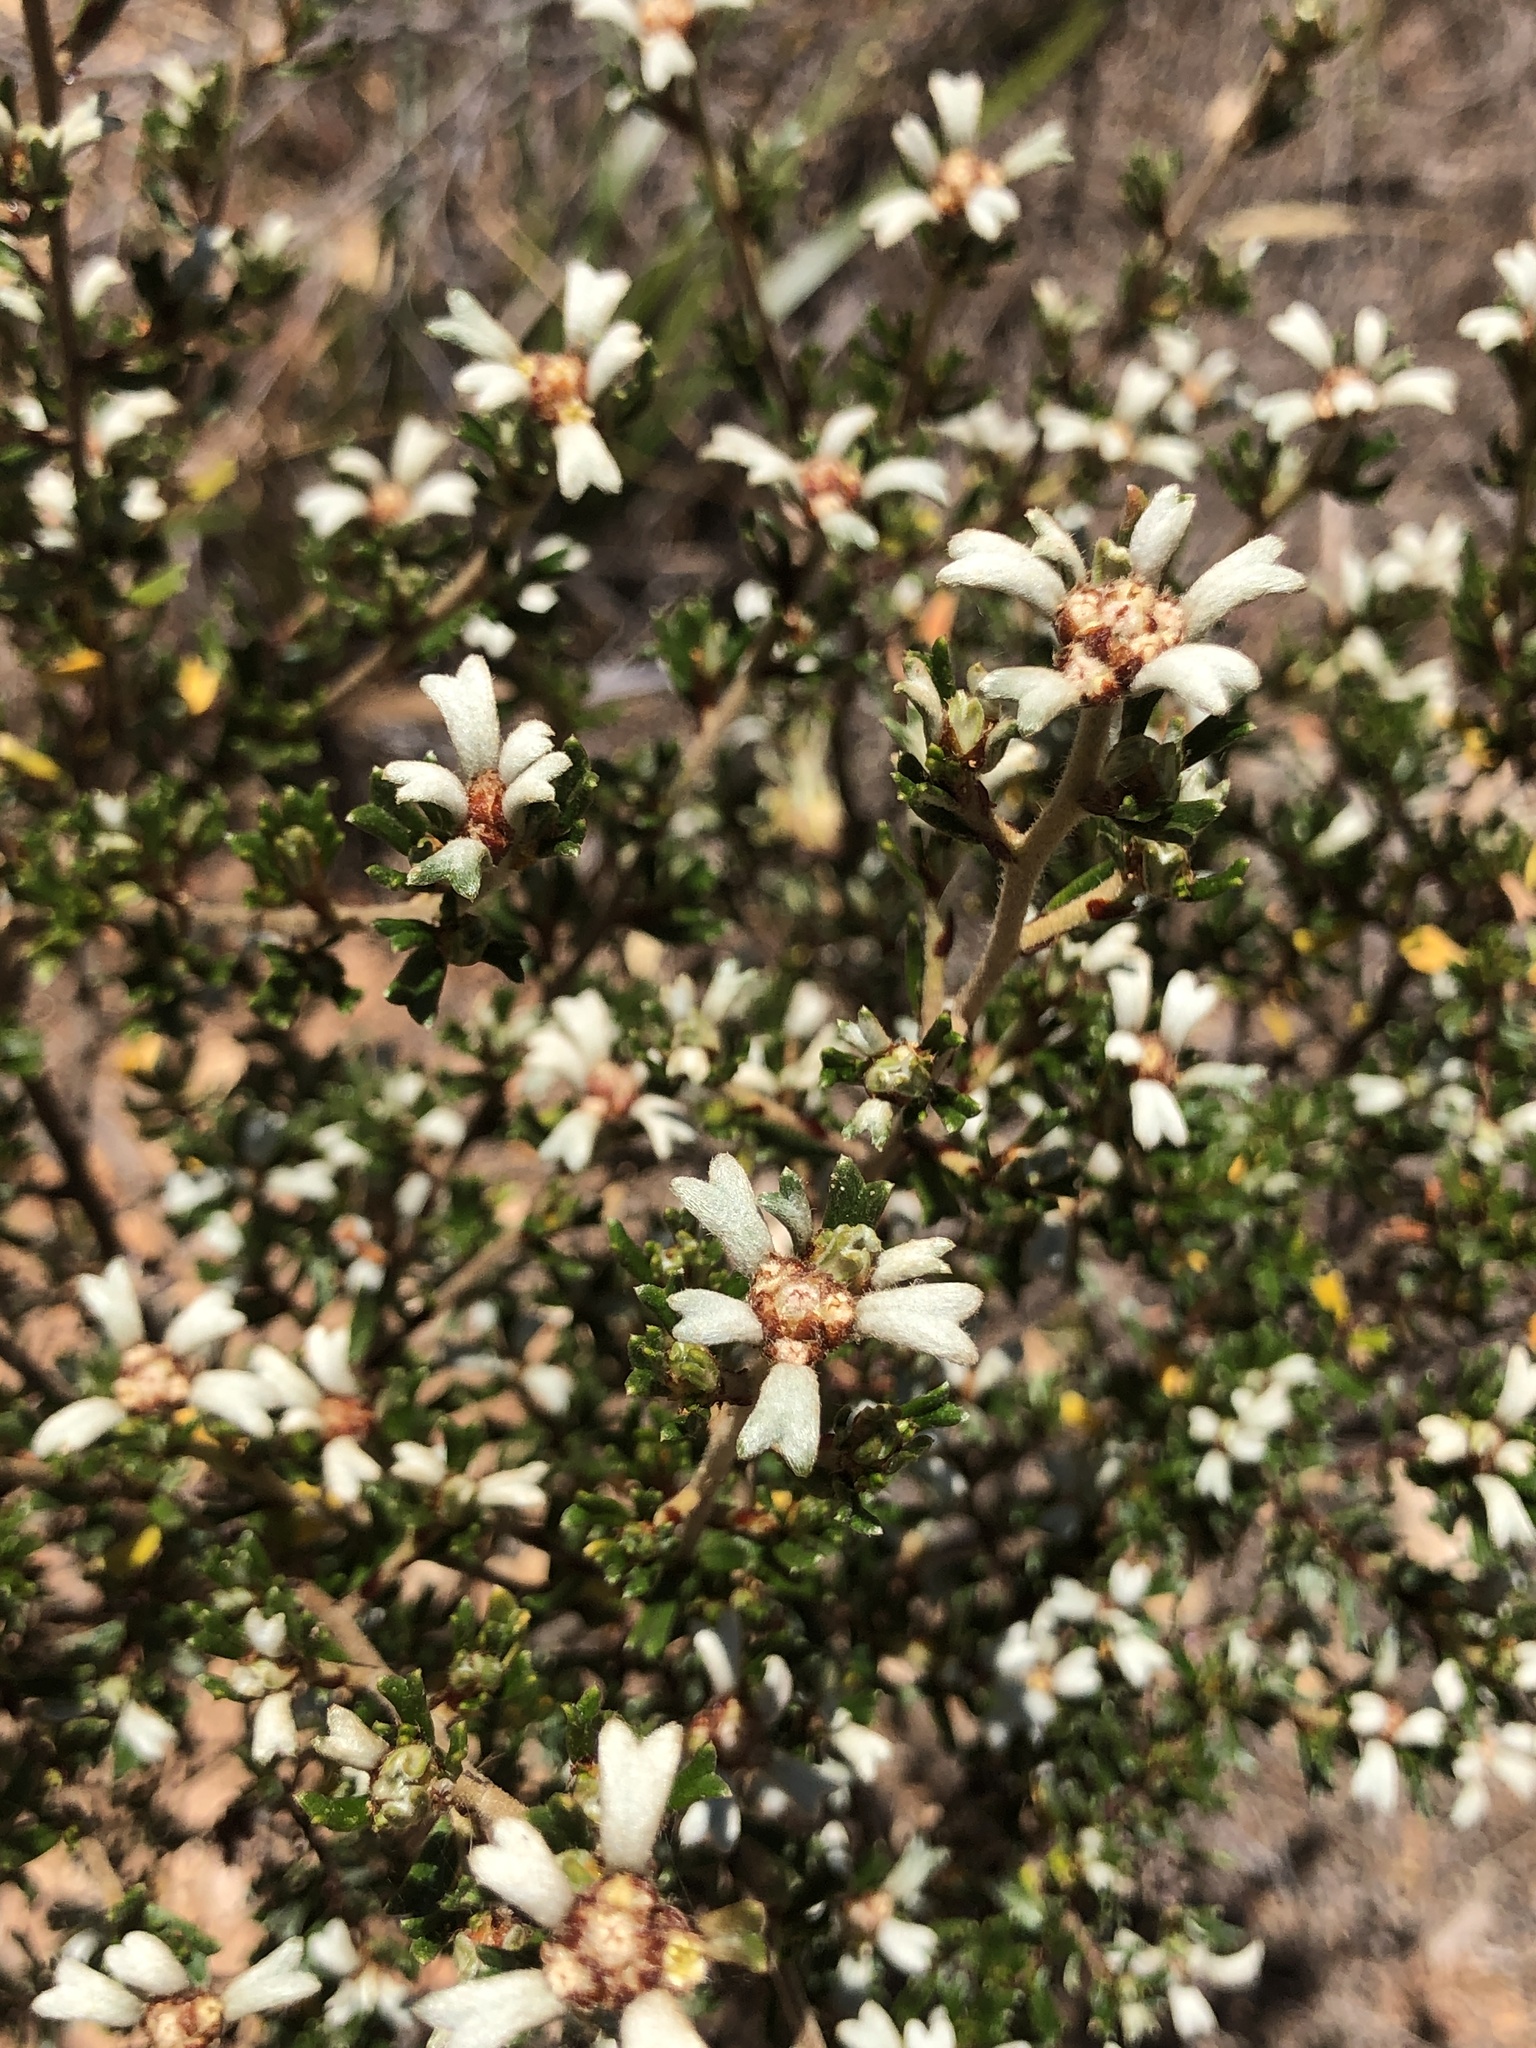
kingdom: Plantae
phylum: Tracheophyta
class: Magnoliopsida
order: Rosales
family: Rhamnaceae
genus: Spyridium
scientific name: Spyridium stenophyllum
